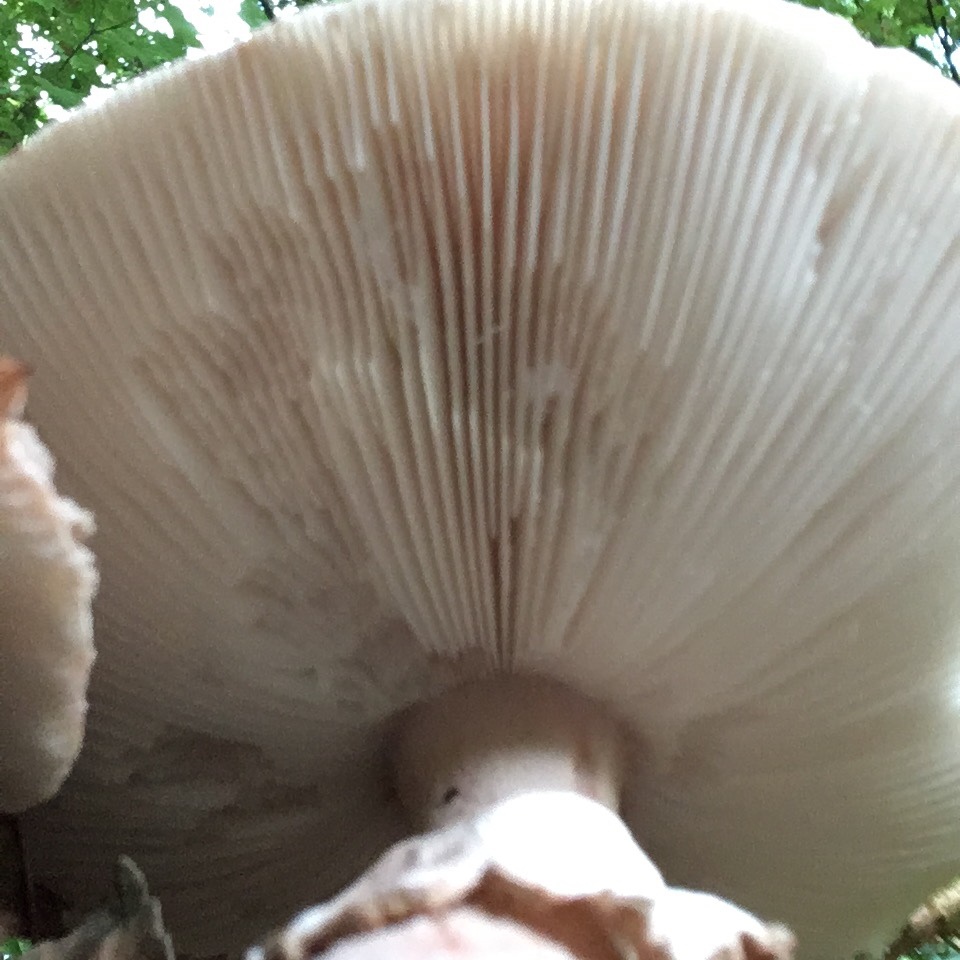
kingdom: Fungi
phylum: Basidiomycota
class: Agaricomycetes
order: Agaricales
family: Amanitaceae
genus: Amanita
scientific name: Amanita pantherina
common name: Panthercap
